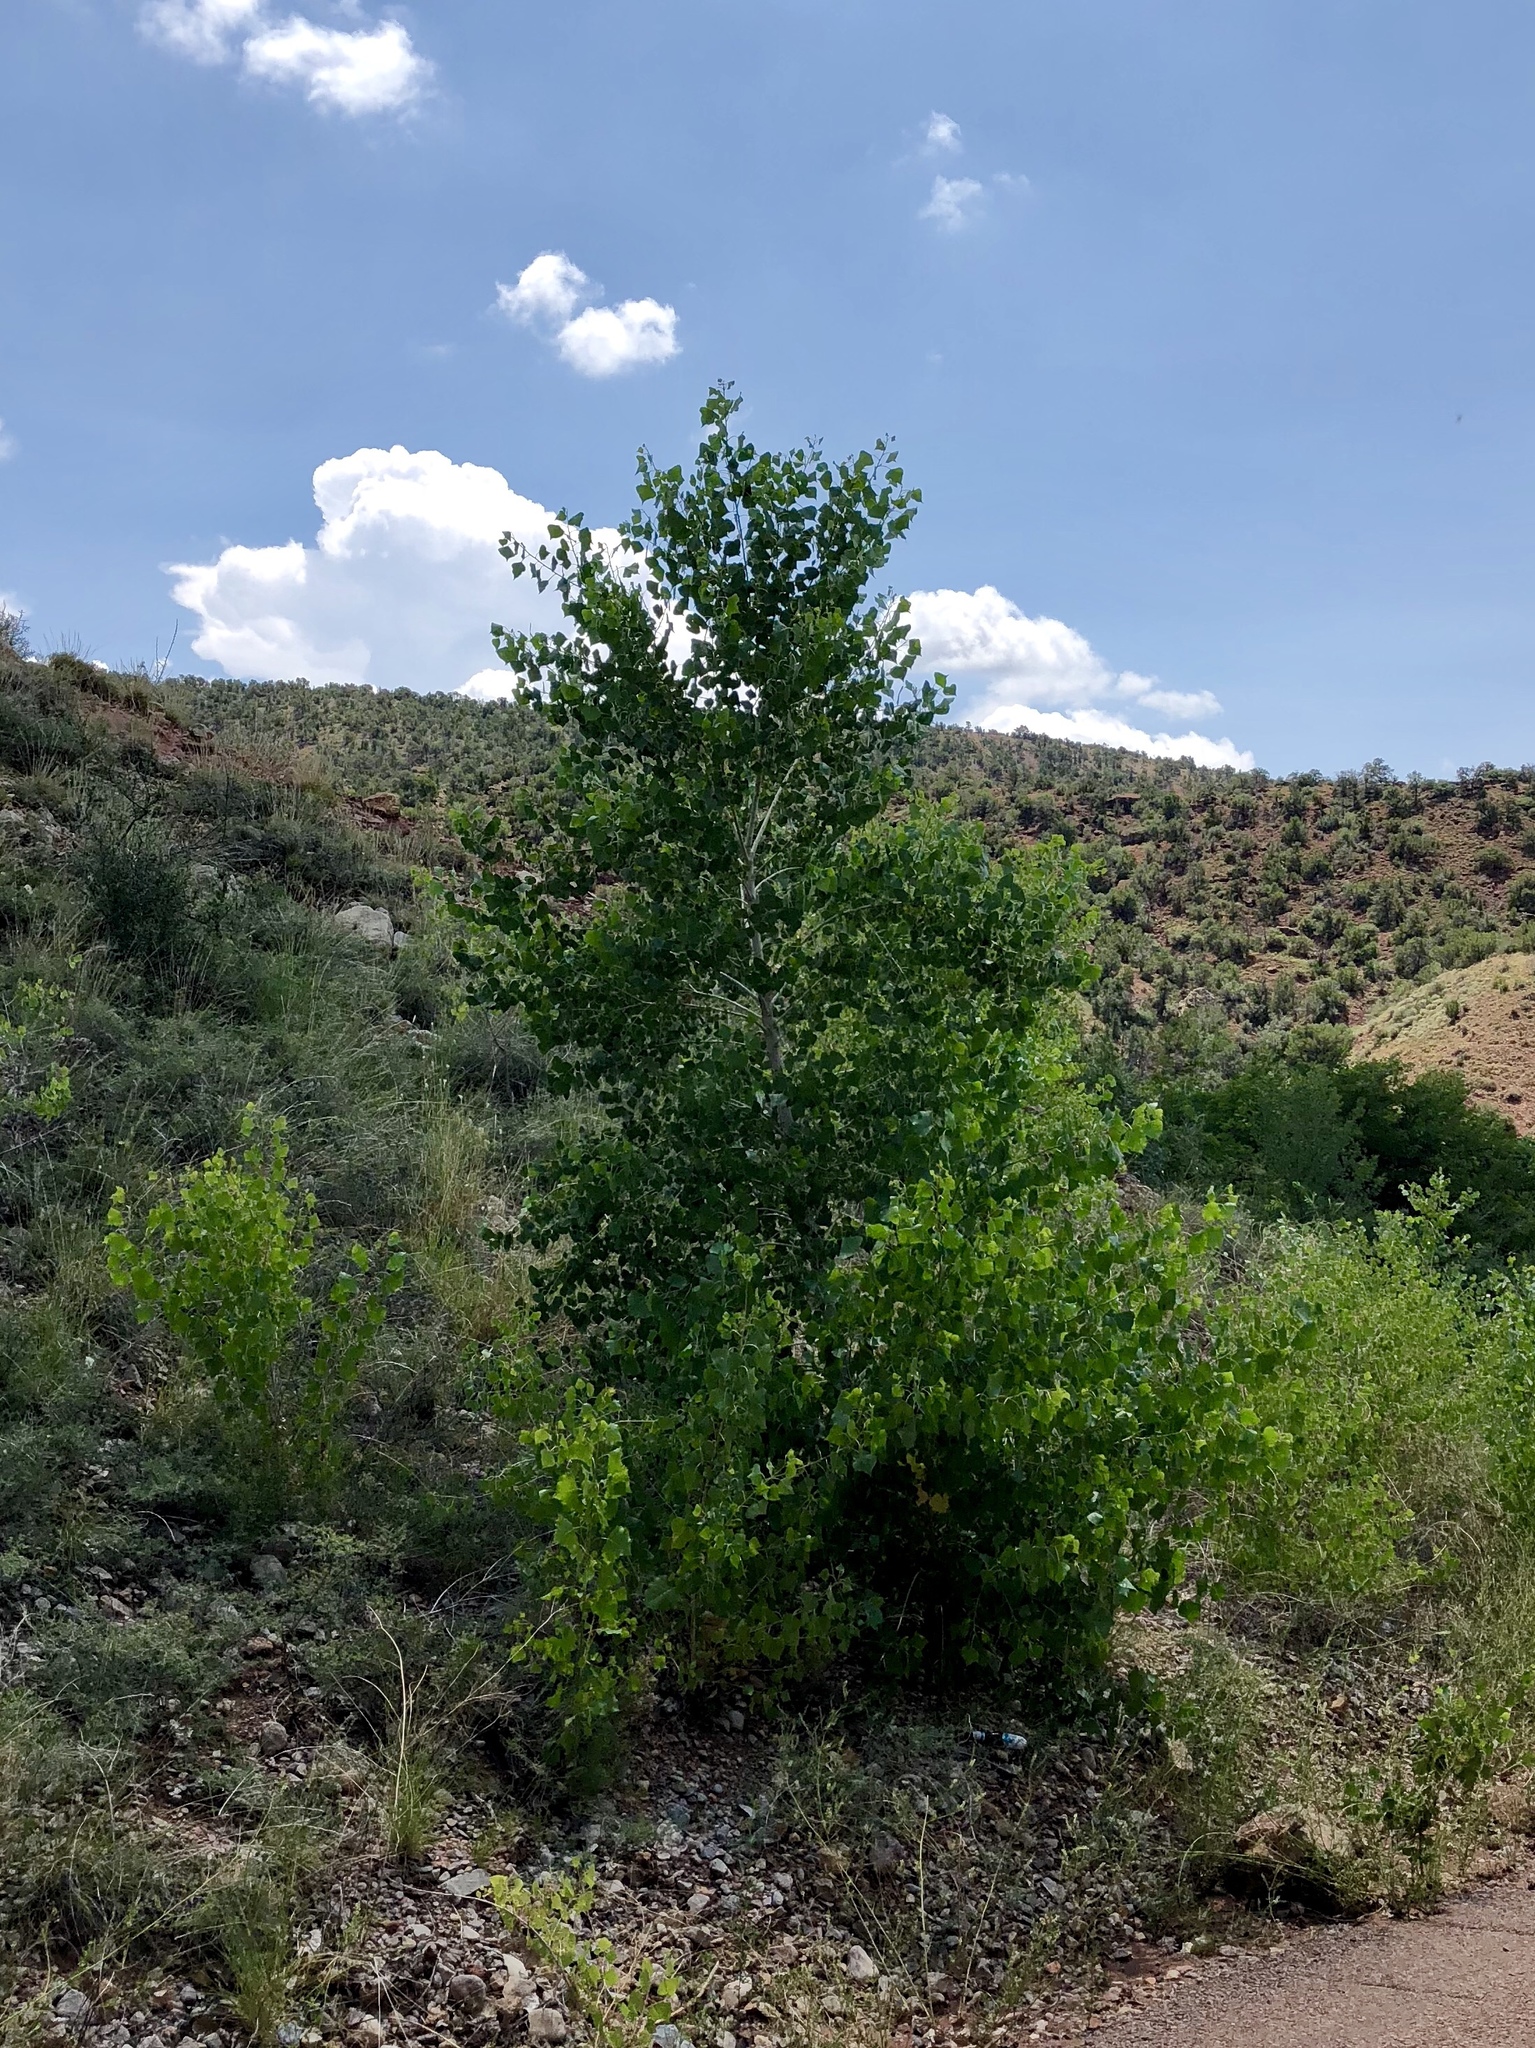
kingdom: Plantae
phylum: Tracheophyta
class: Magnoliopsida
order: Malpighiales
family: Salicaceae
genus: Populus
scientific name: Populus fremontii
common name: Fremont's cottonwood
